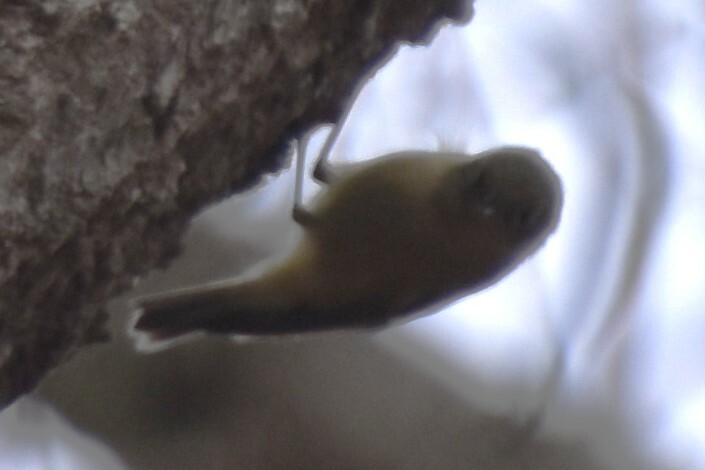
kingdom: Animalia
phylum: Chordata
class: Aves
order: Passeriformes
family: Regulidae
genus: Regulus
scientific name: Regulus calendula
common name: Ruby-crowned kinglet
